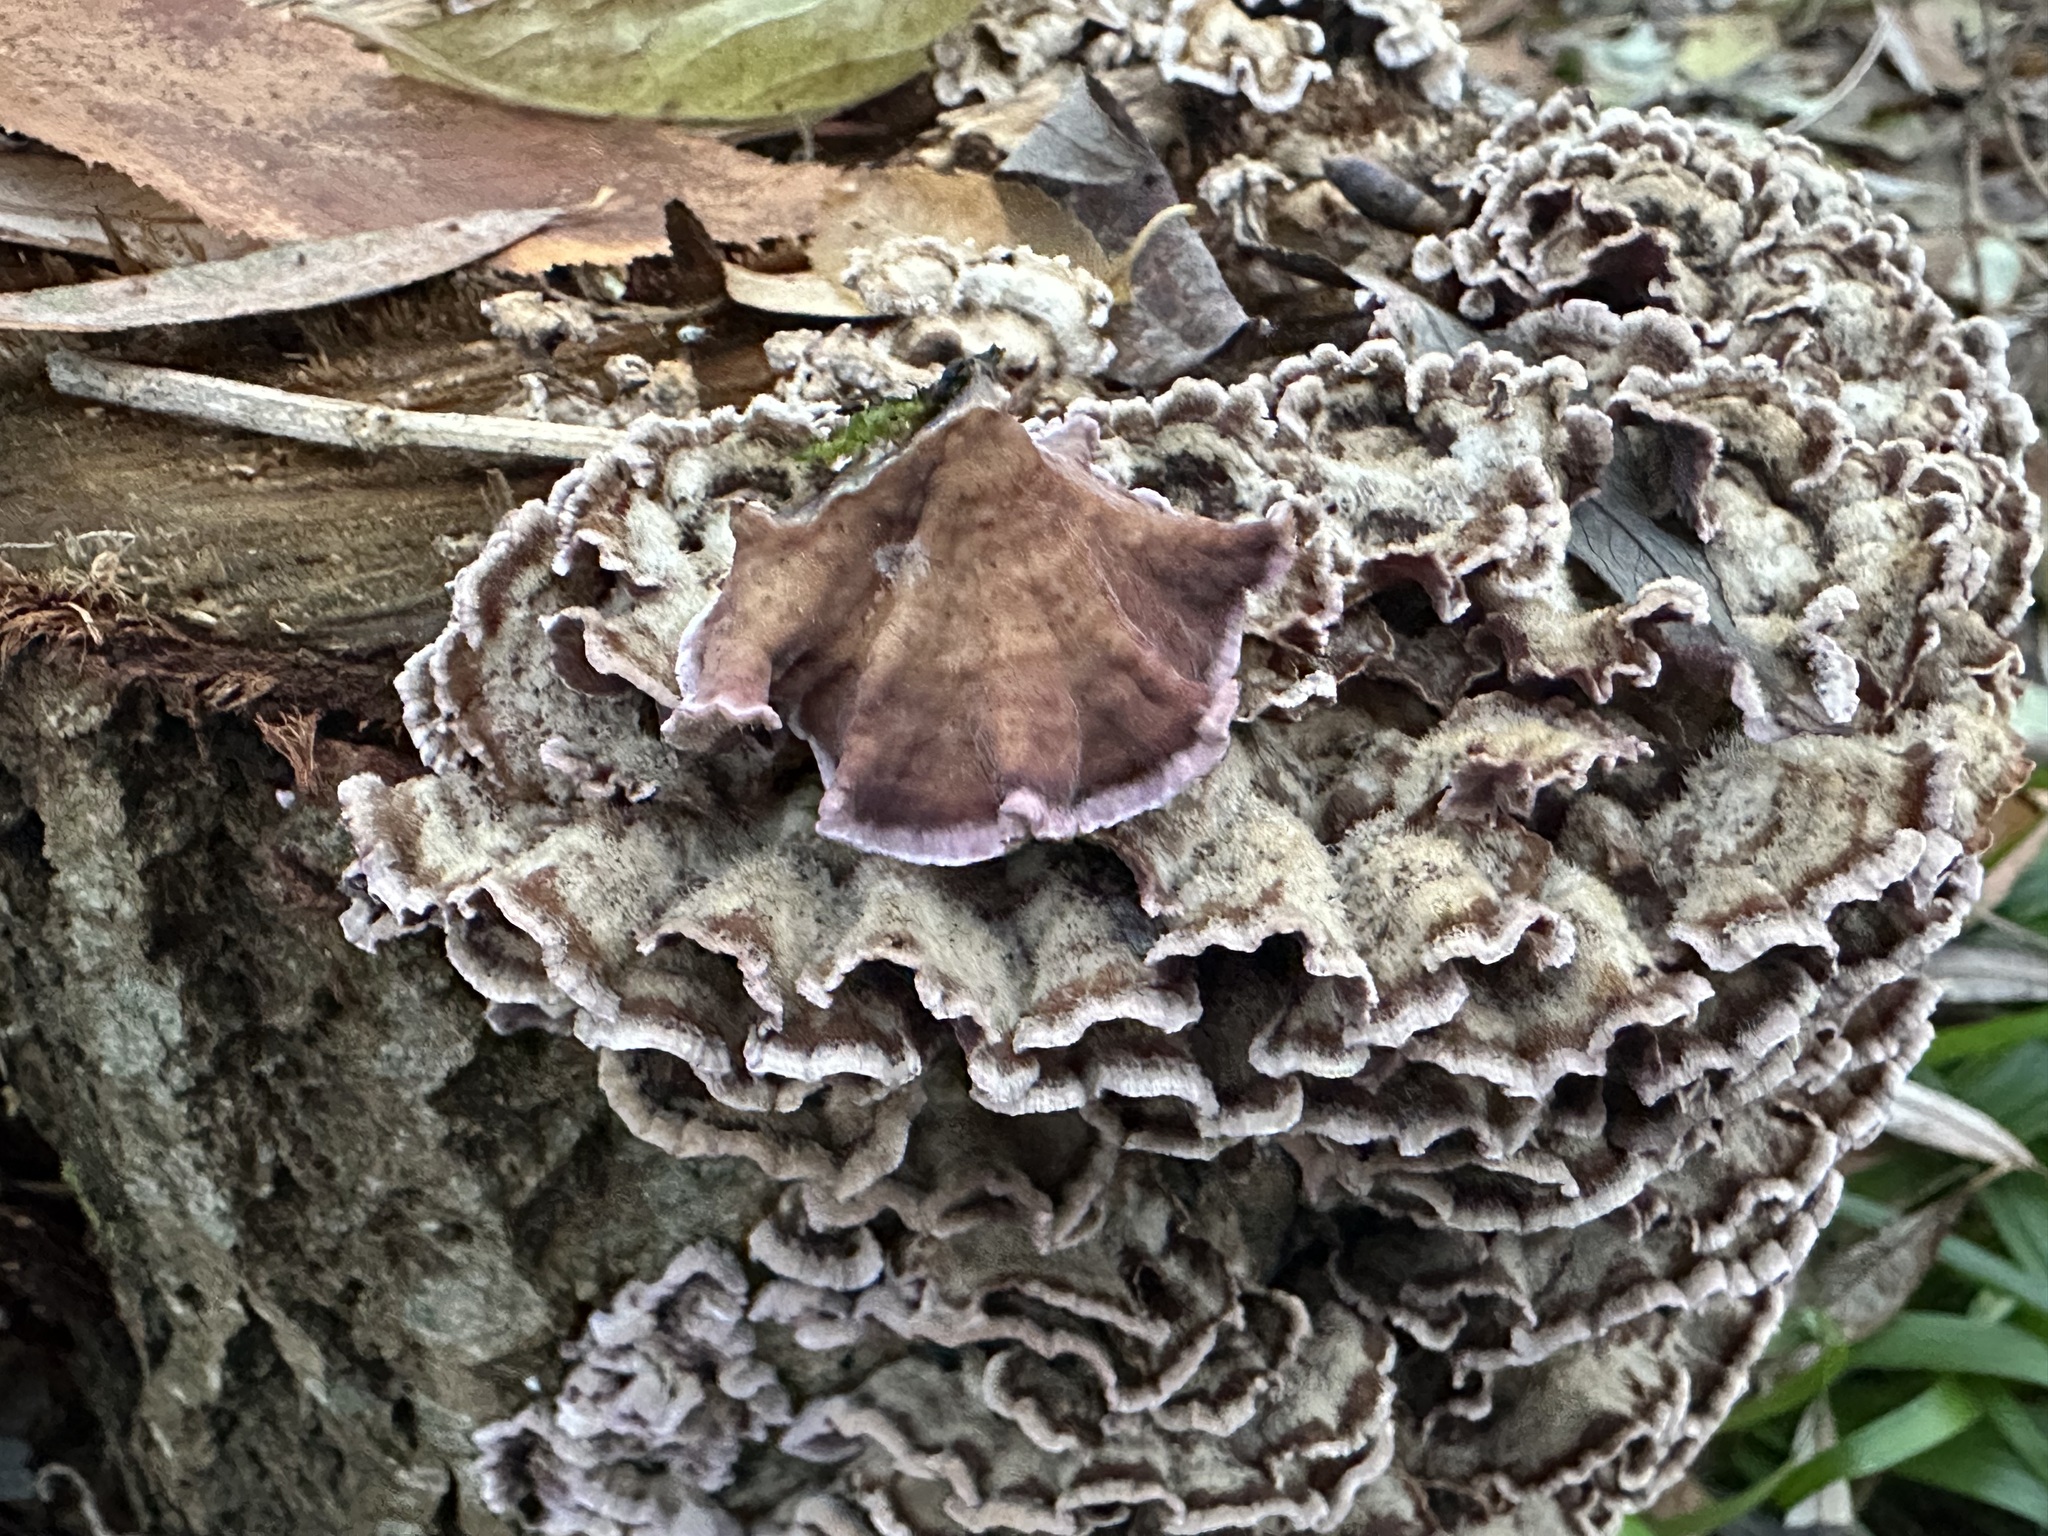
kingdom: Fungi
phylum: Basidiomycota
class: Agaricomycetes
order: Agaricales
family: Cyphellaceae
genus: Chondrostereum
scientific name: Chondrostereum purpureum
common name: Silver leaf disease
